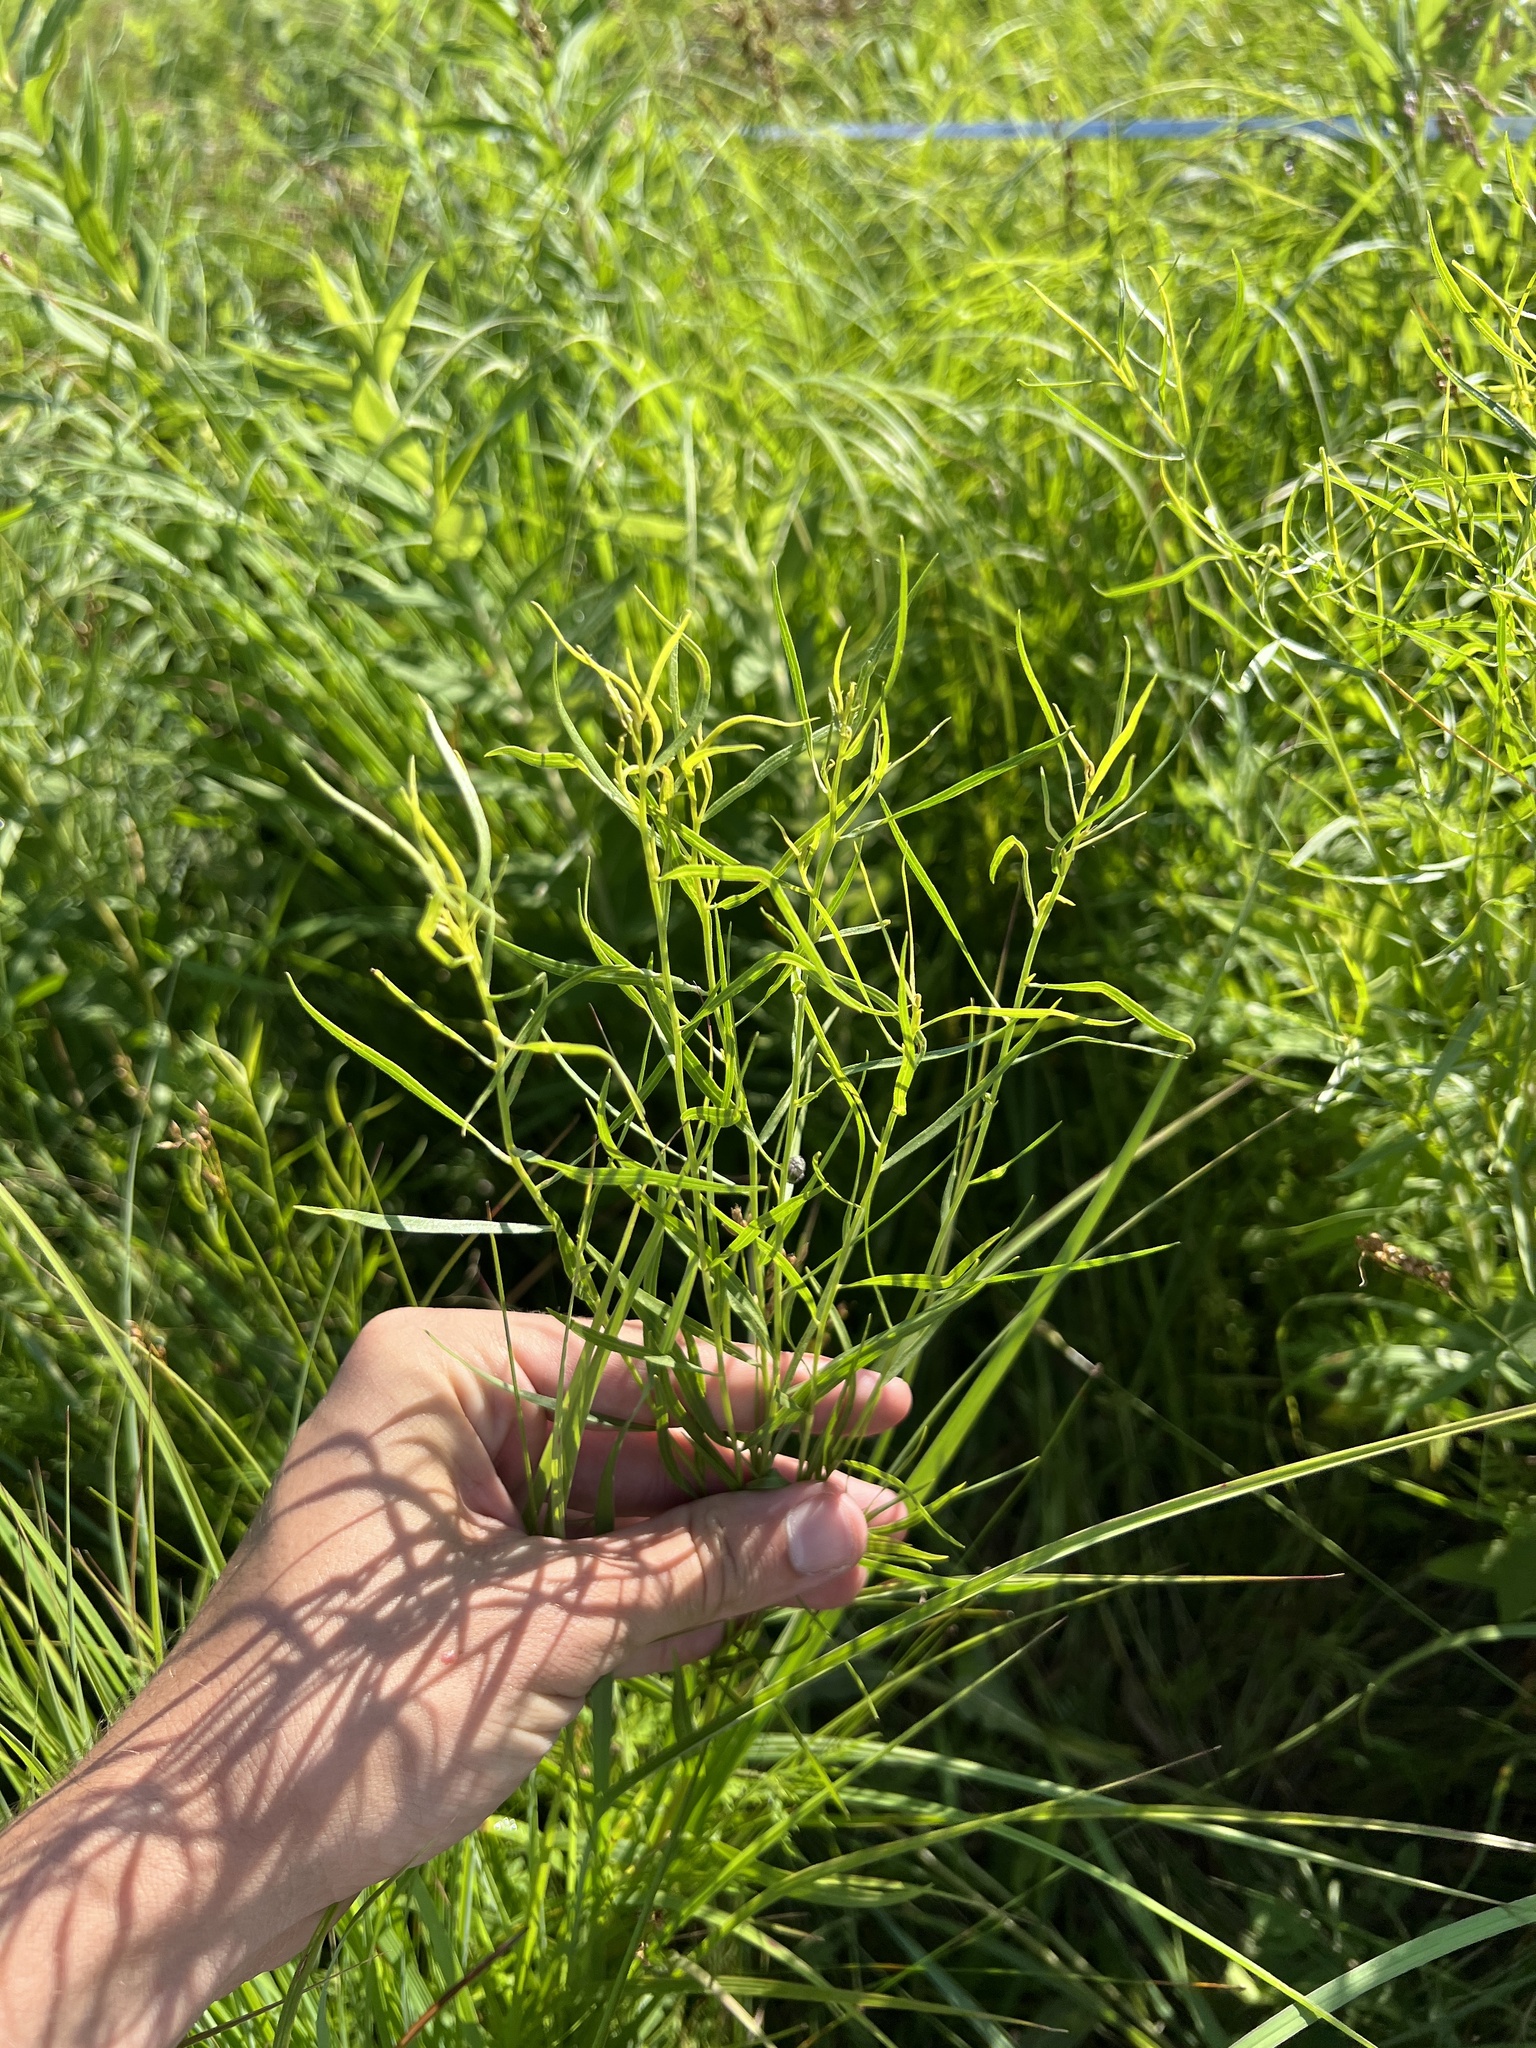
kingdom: Plantae
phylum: Tracheophyta
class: Magnoliopsida
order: Asterales
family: Asteraceae
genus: Euthamia
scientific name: Euthamia gymnospermoides
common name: Great plains goldentop
